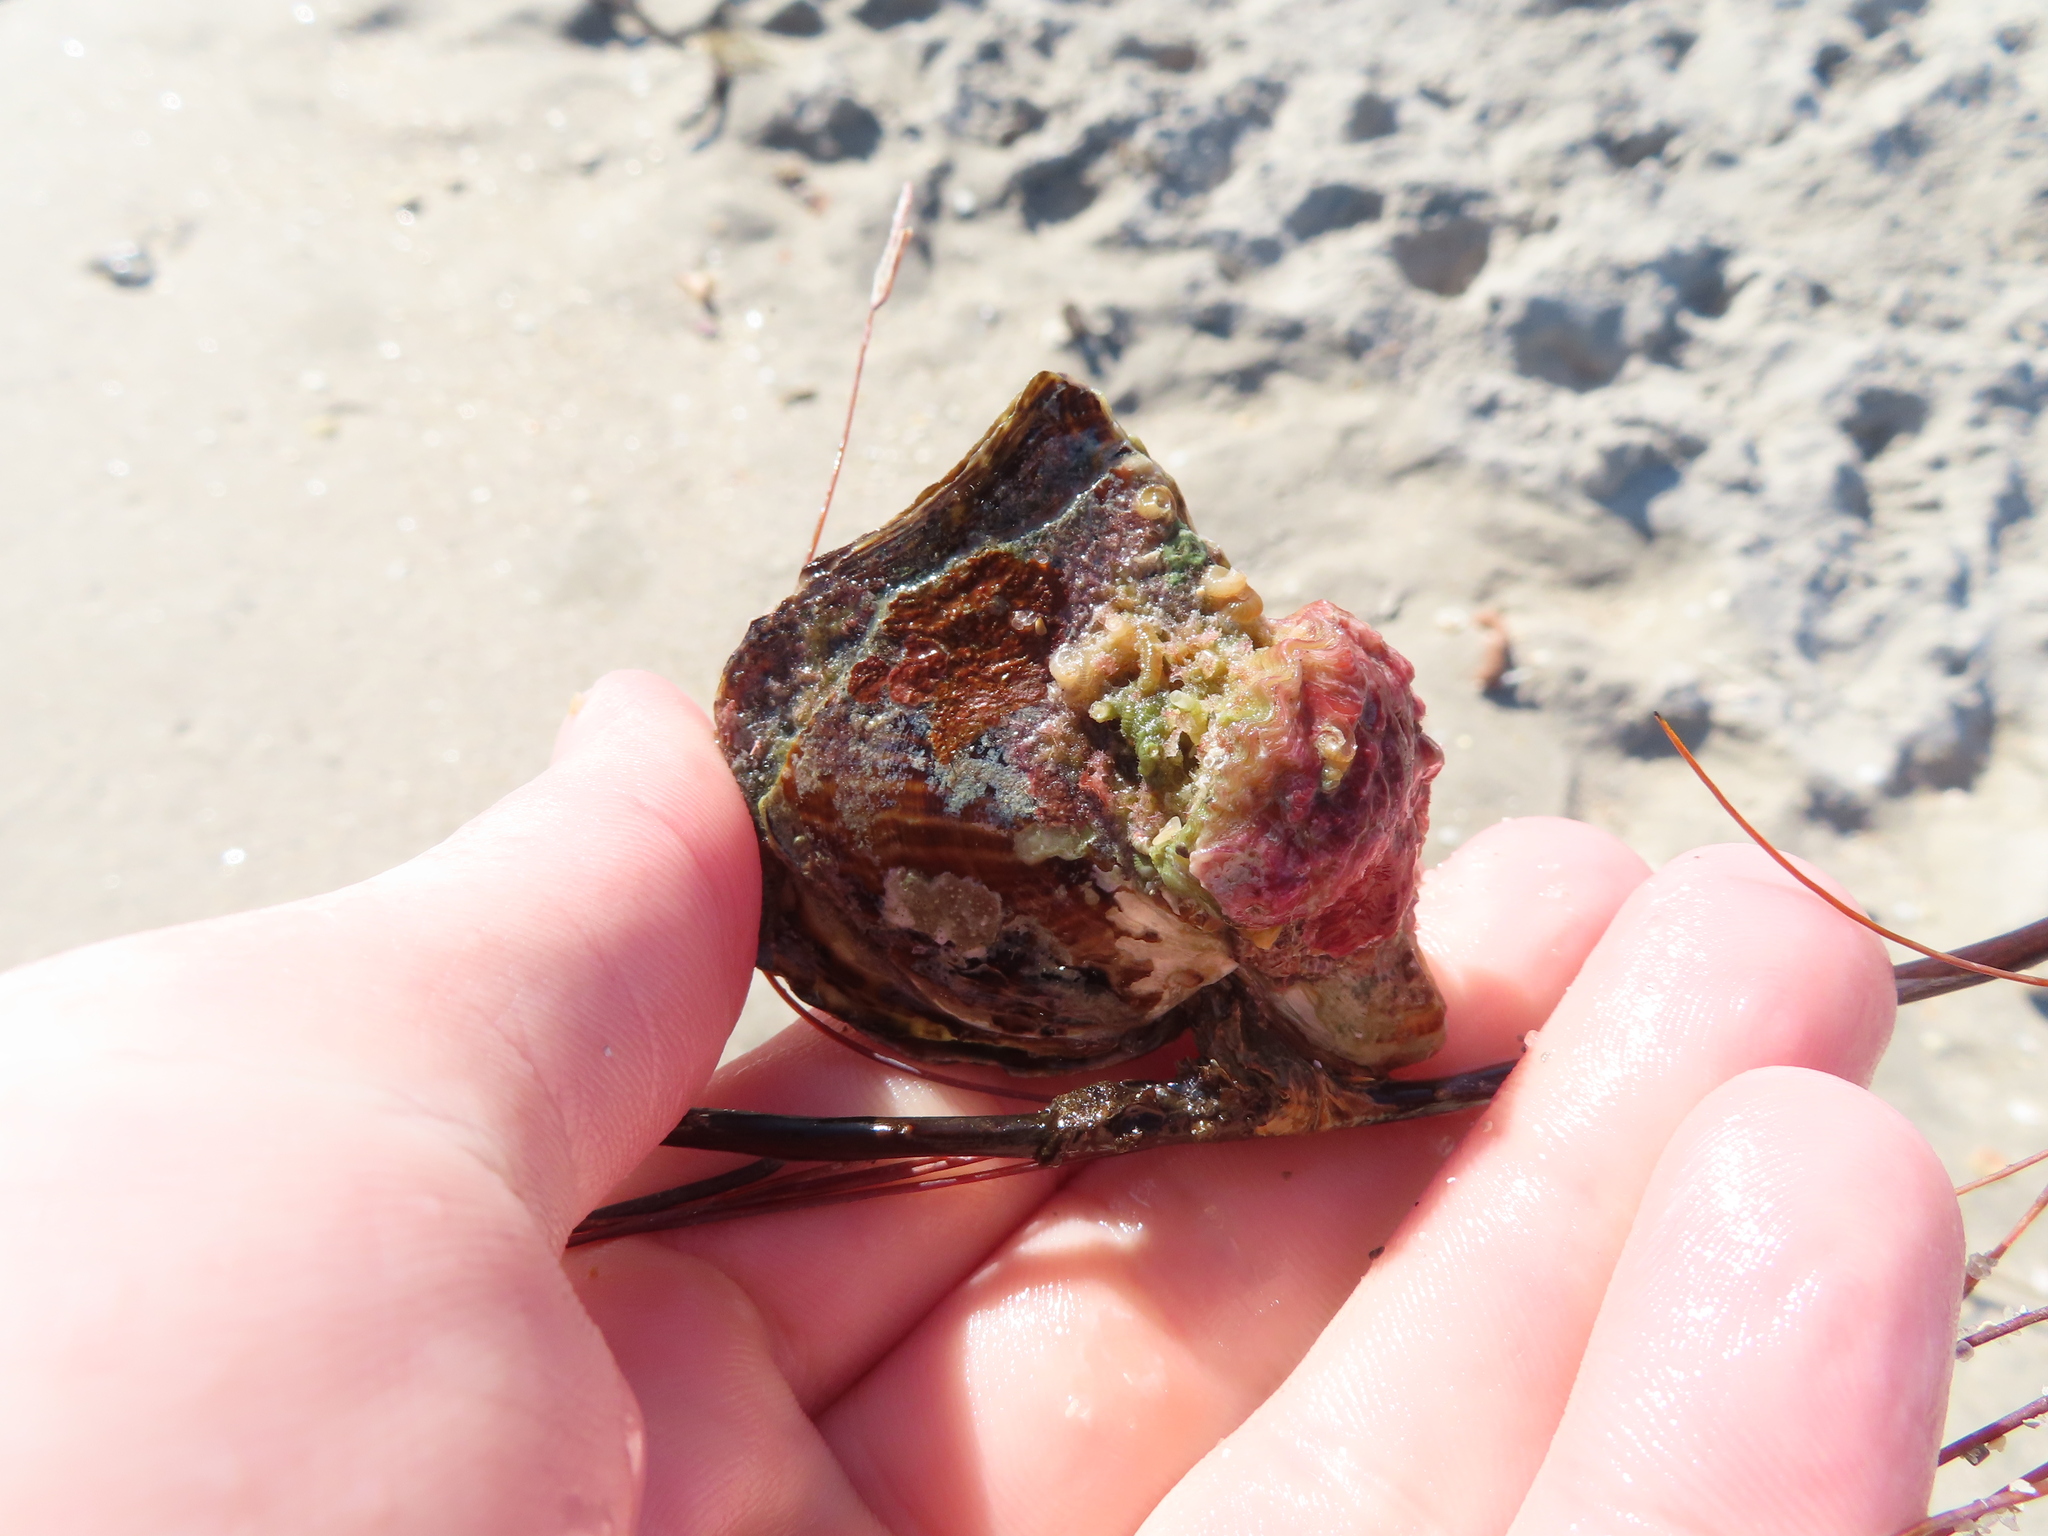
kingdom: Animalia
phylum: Mollusca
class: Bivalvia
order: Ostreida
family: Pteriidae
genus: Pteria
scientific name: Pteria colymbus
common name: Atlantic wing-oyster
